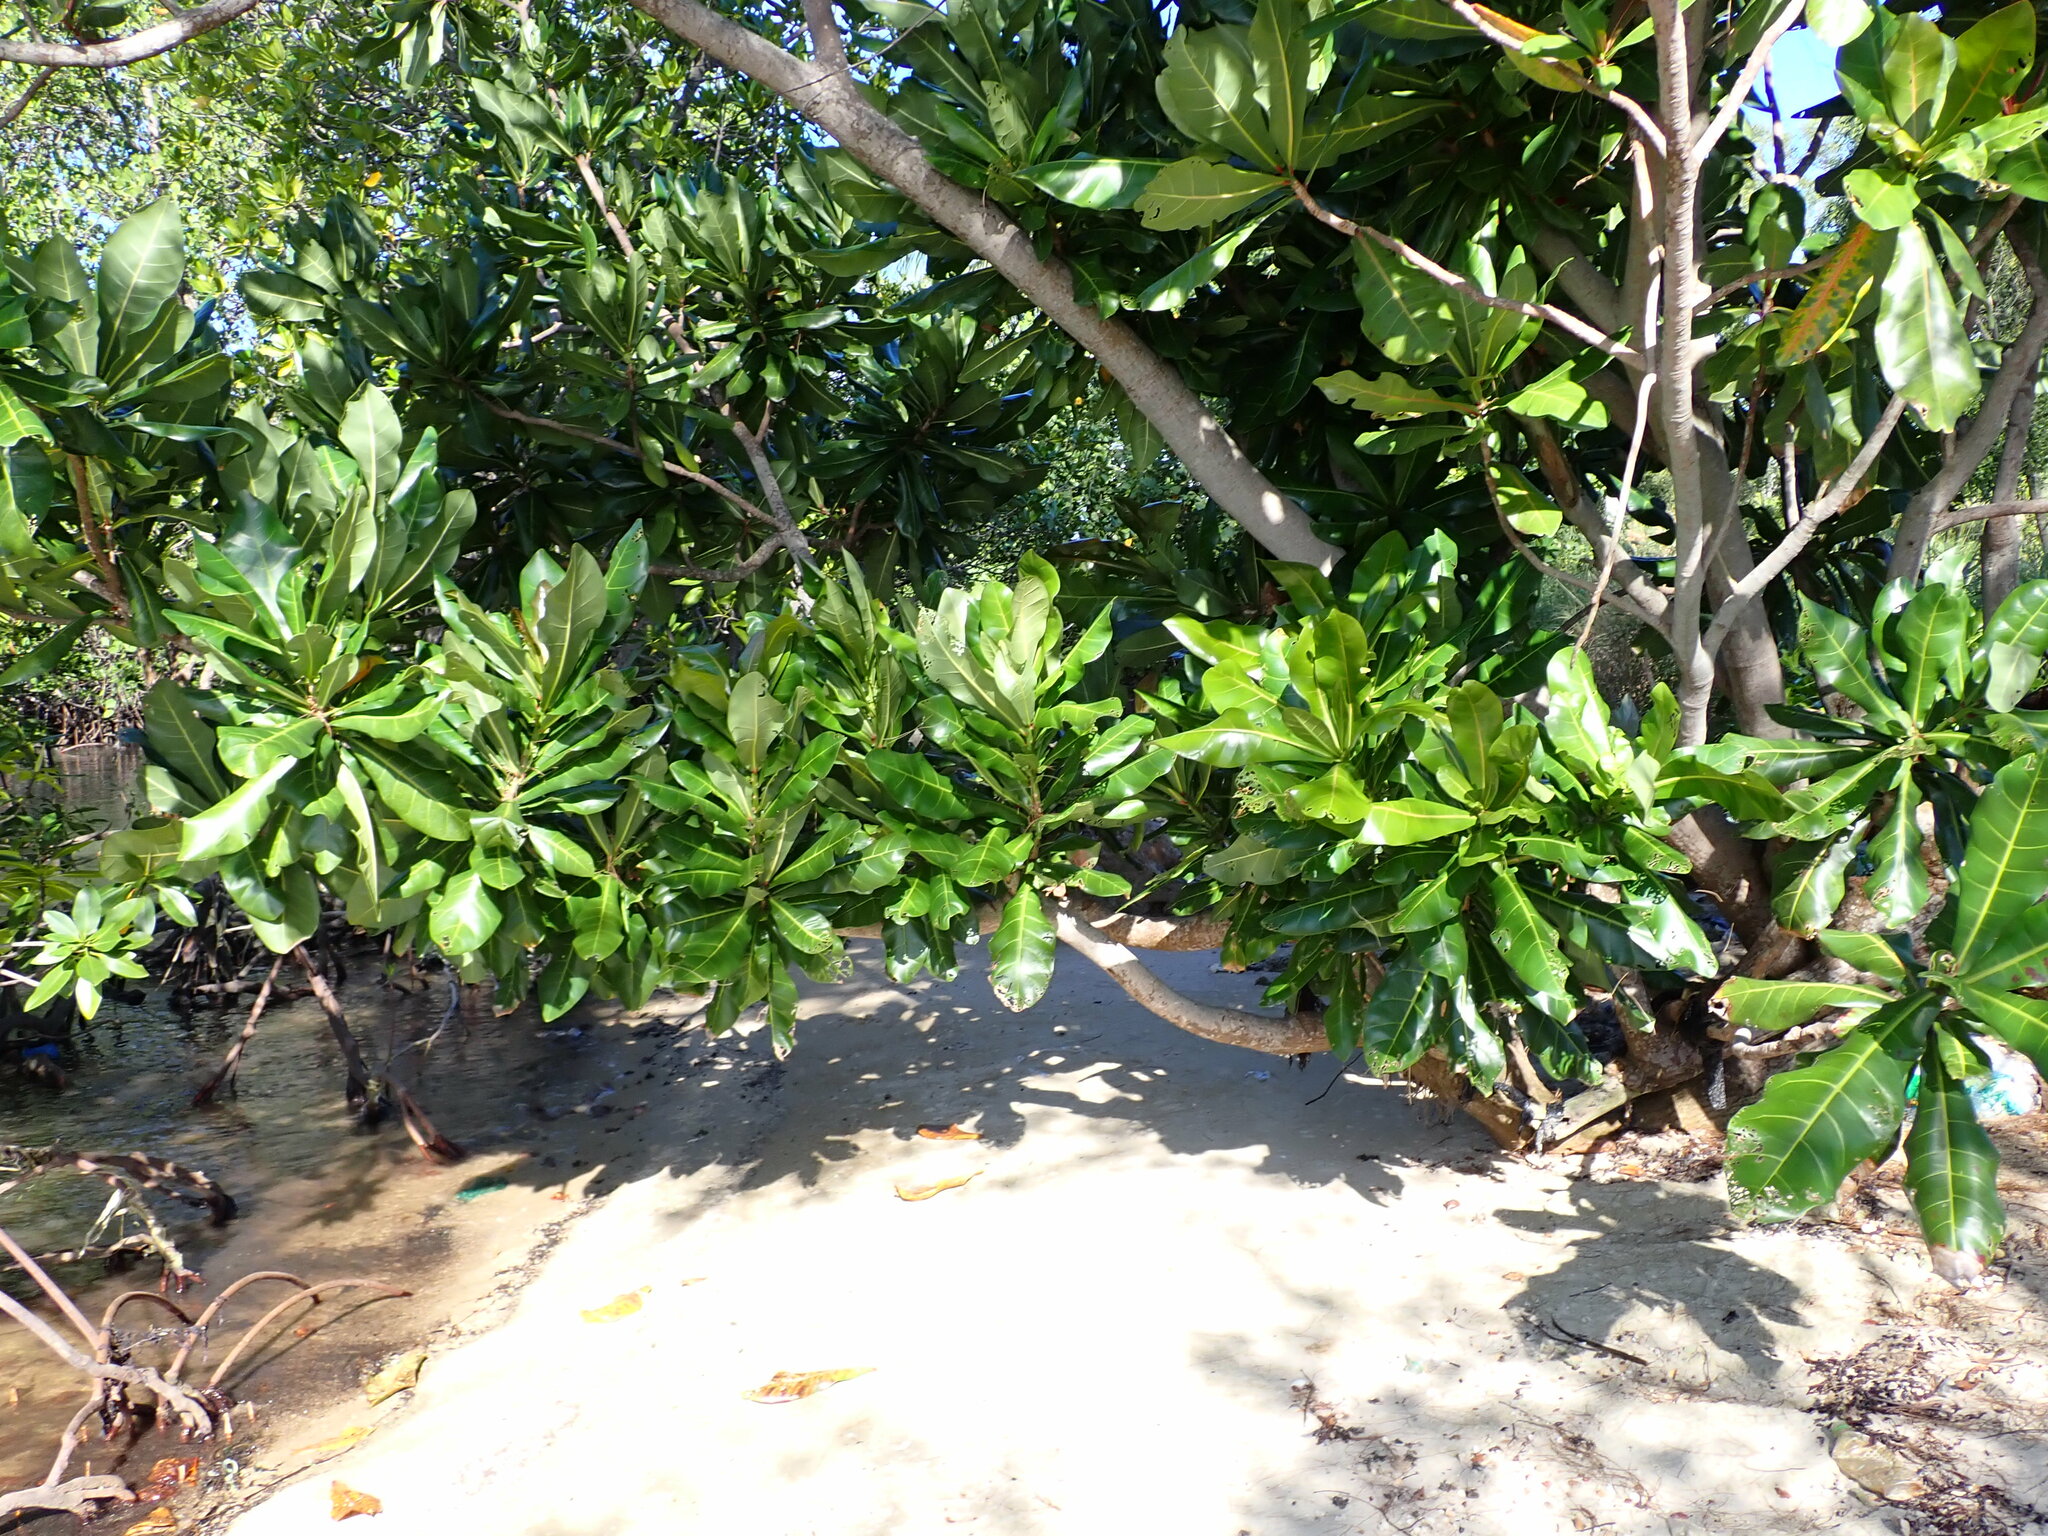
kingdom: Plantae
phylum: Tracheophyta
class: Magnoliopsida
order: Ericales
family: Lecythidaceae
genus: Barringtonia
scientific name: Barringtonia asiatica
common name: Mango-pine
